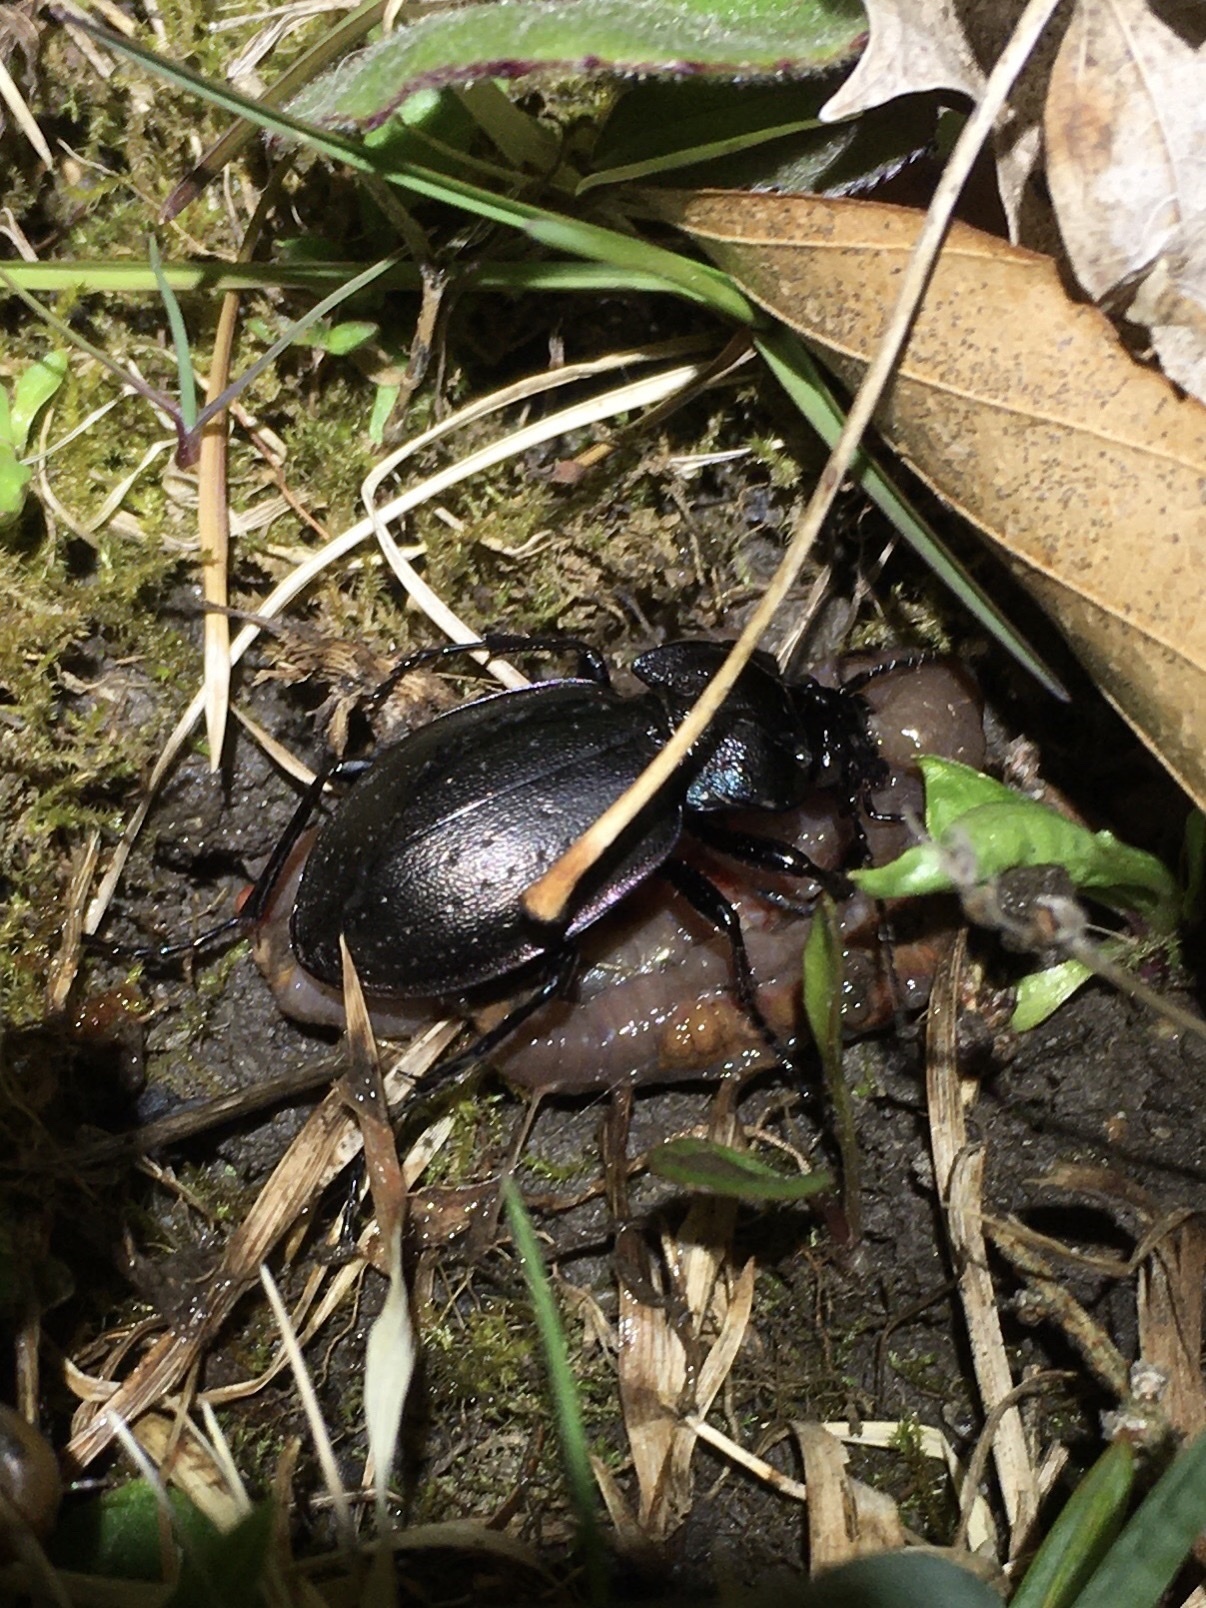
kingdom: Animalia
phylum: Arthropoda
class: Insecta
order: Coleoptera
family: Carabidae
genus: Carabus
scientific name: Carabus nemoralis
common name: European ground beetle
